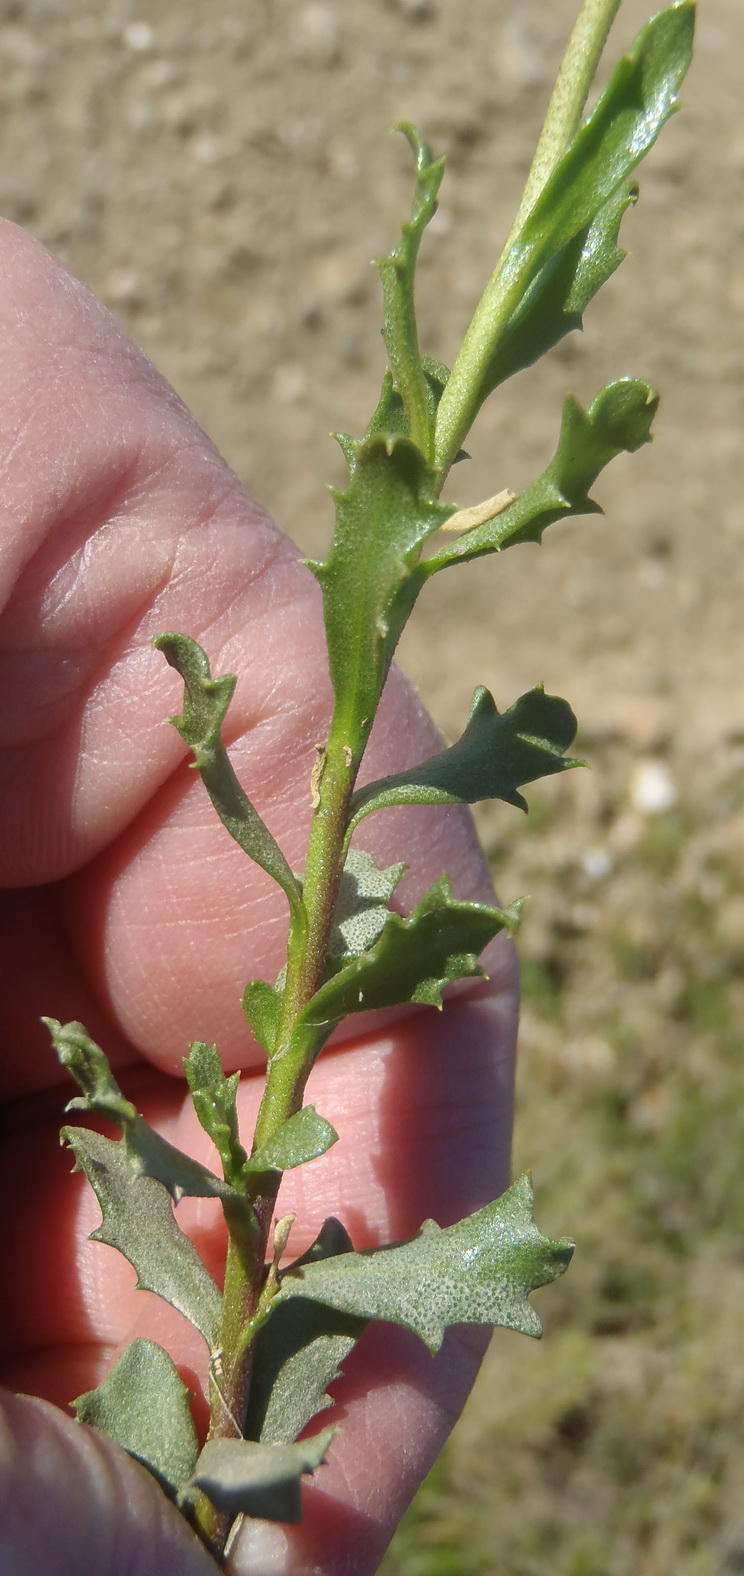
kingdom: Plantae
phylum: Tracheophyta
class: Magnoliopsida
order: Asterales
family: Asteraceae
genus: Dimorphotheca
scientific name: Dimorphotheca cuneata
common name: Daisy
